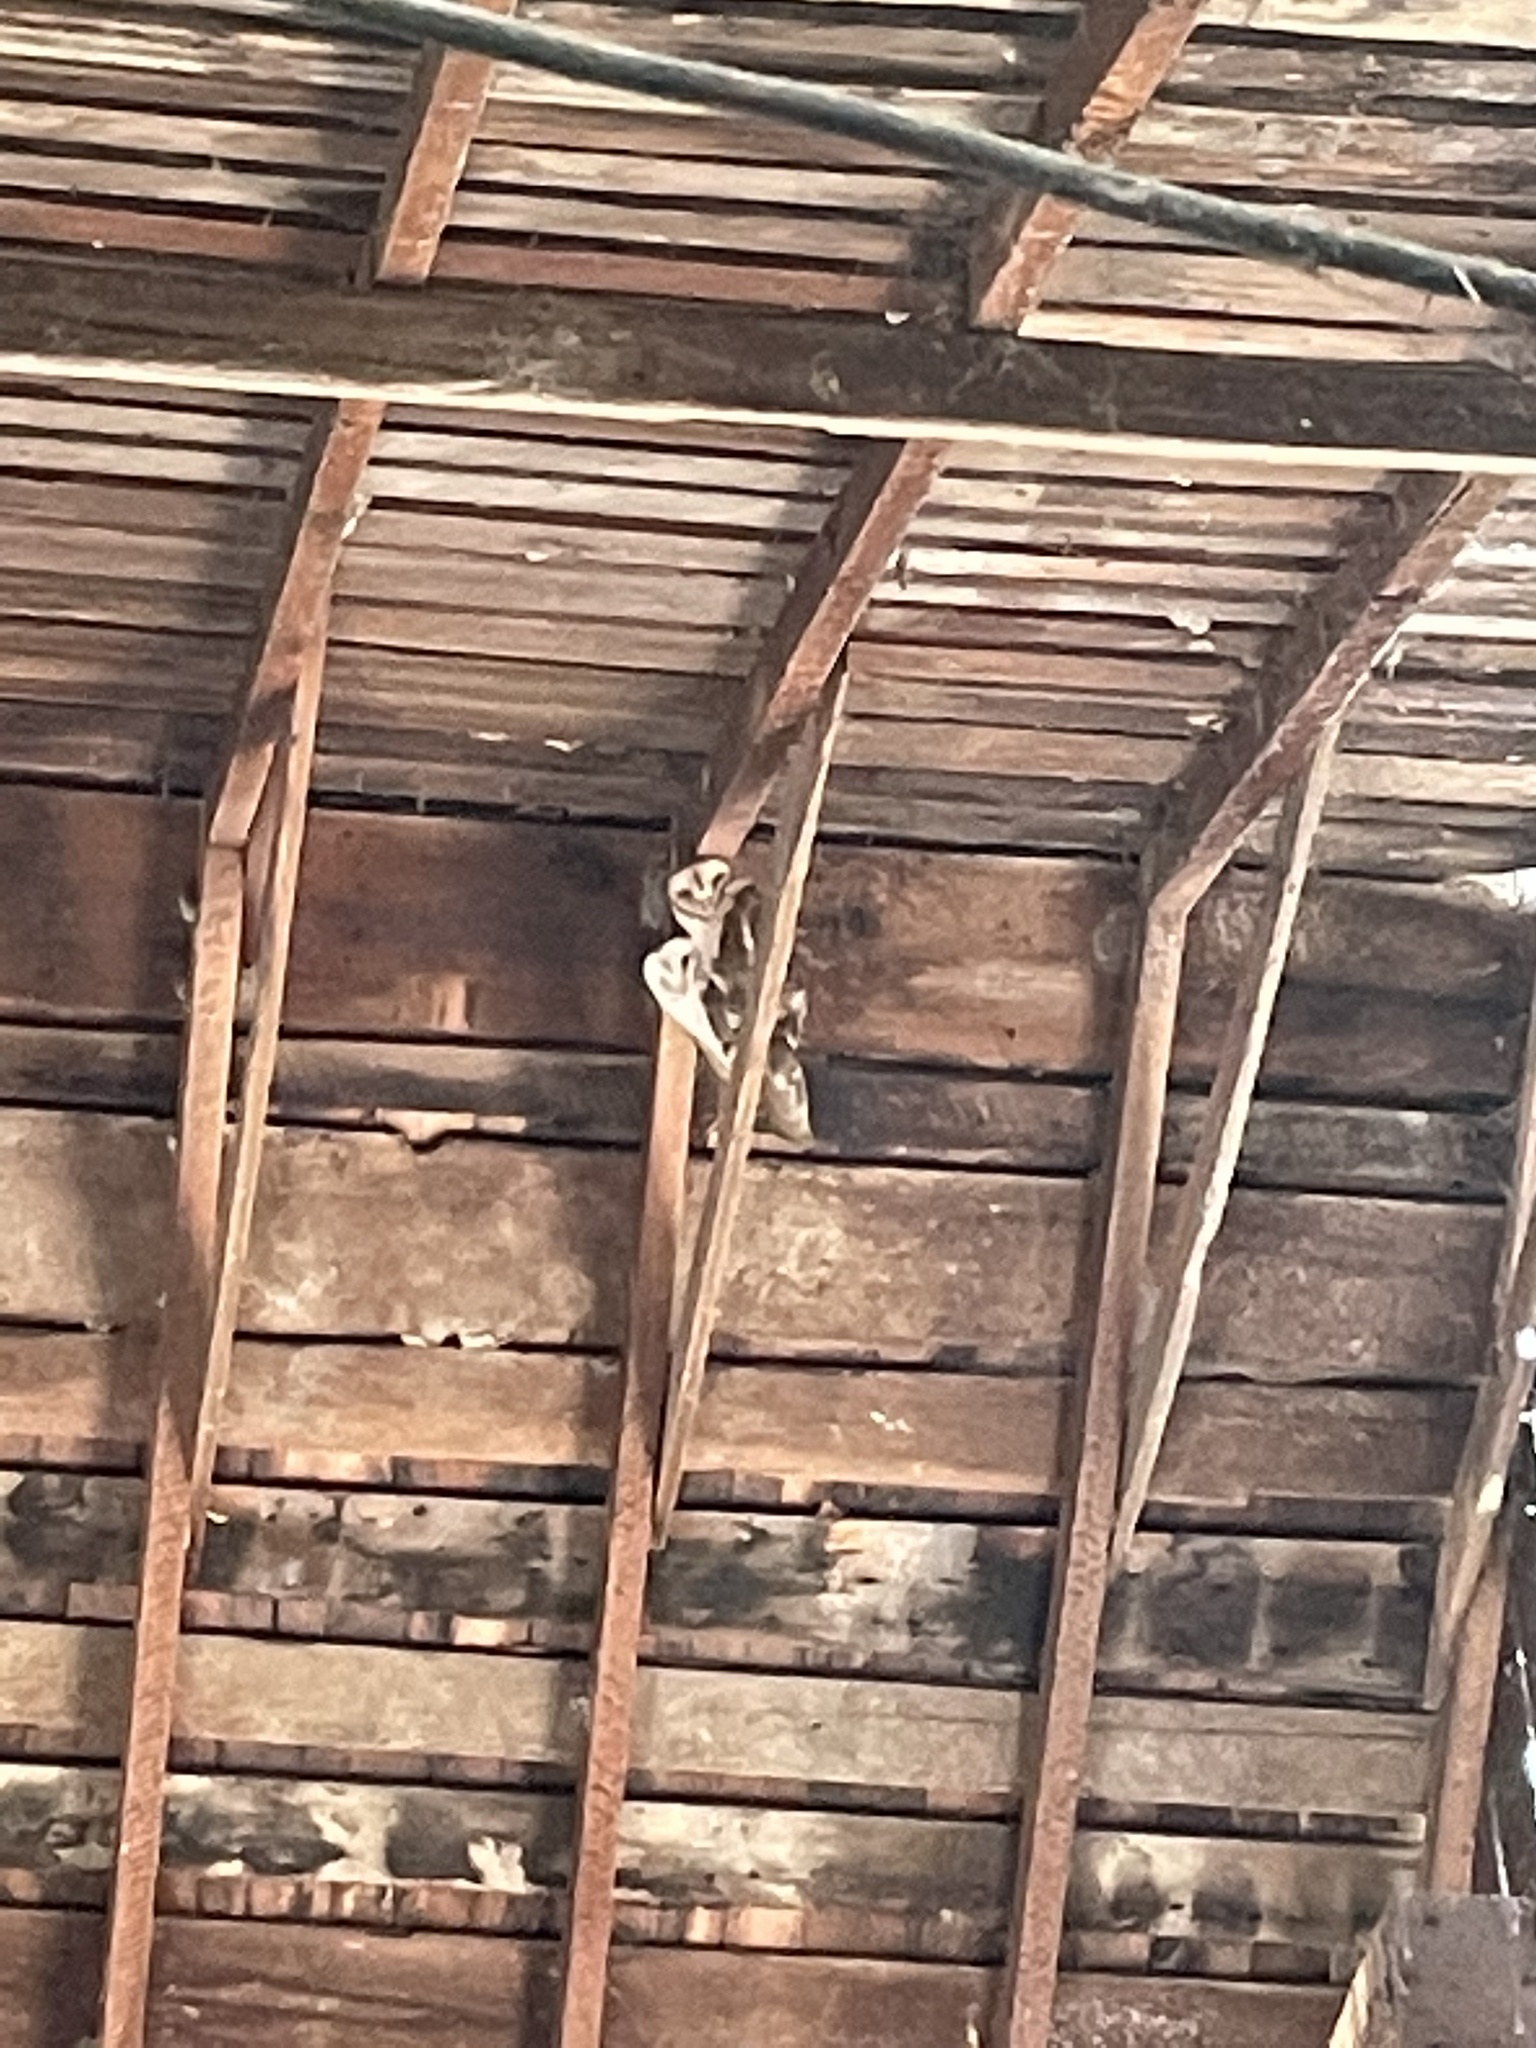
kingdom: Animalia
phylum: Chordata
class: Aves
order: Strigiformes
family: Tytonidae
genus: Tyto
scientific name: Tyto alba
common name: Barn owl
